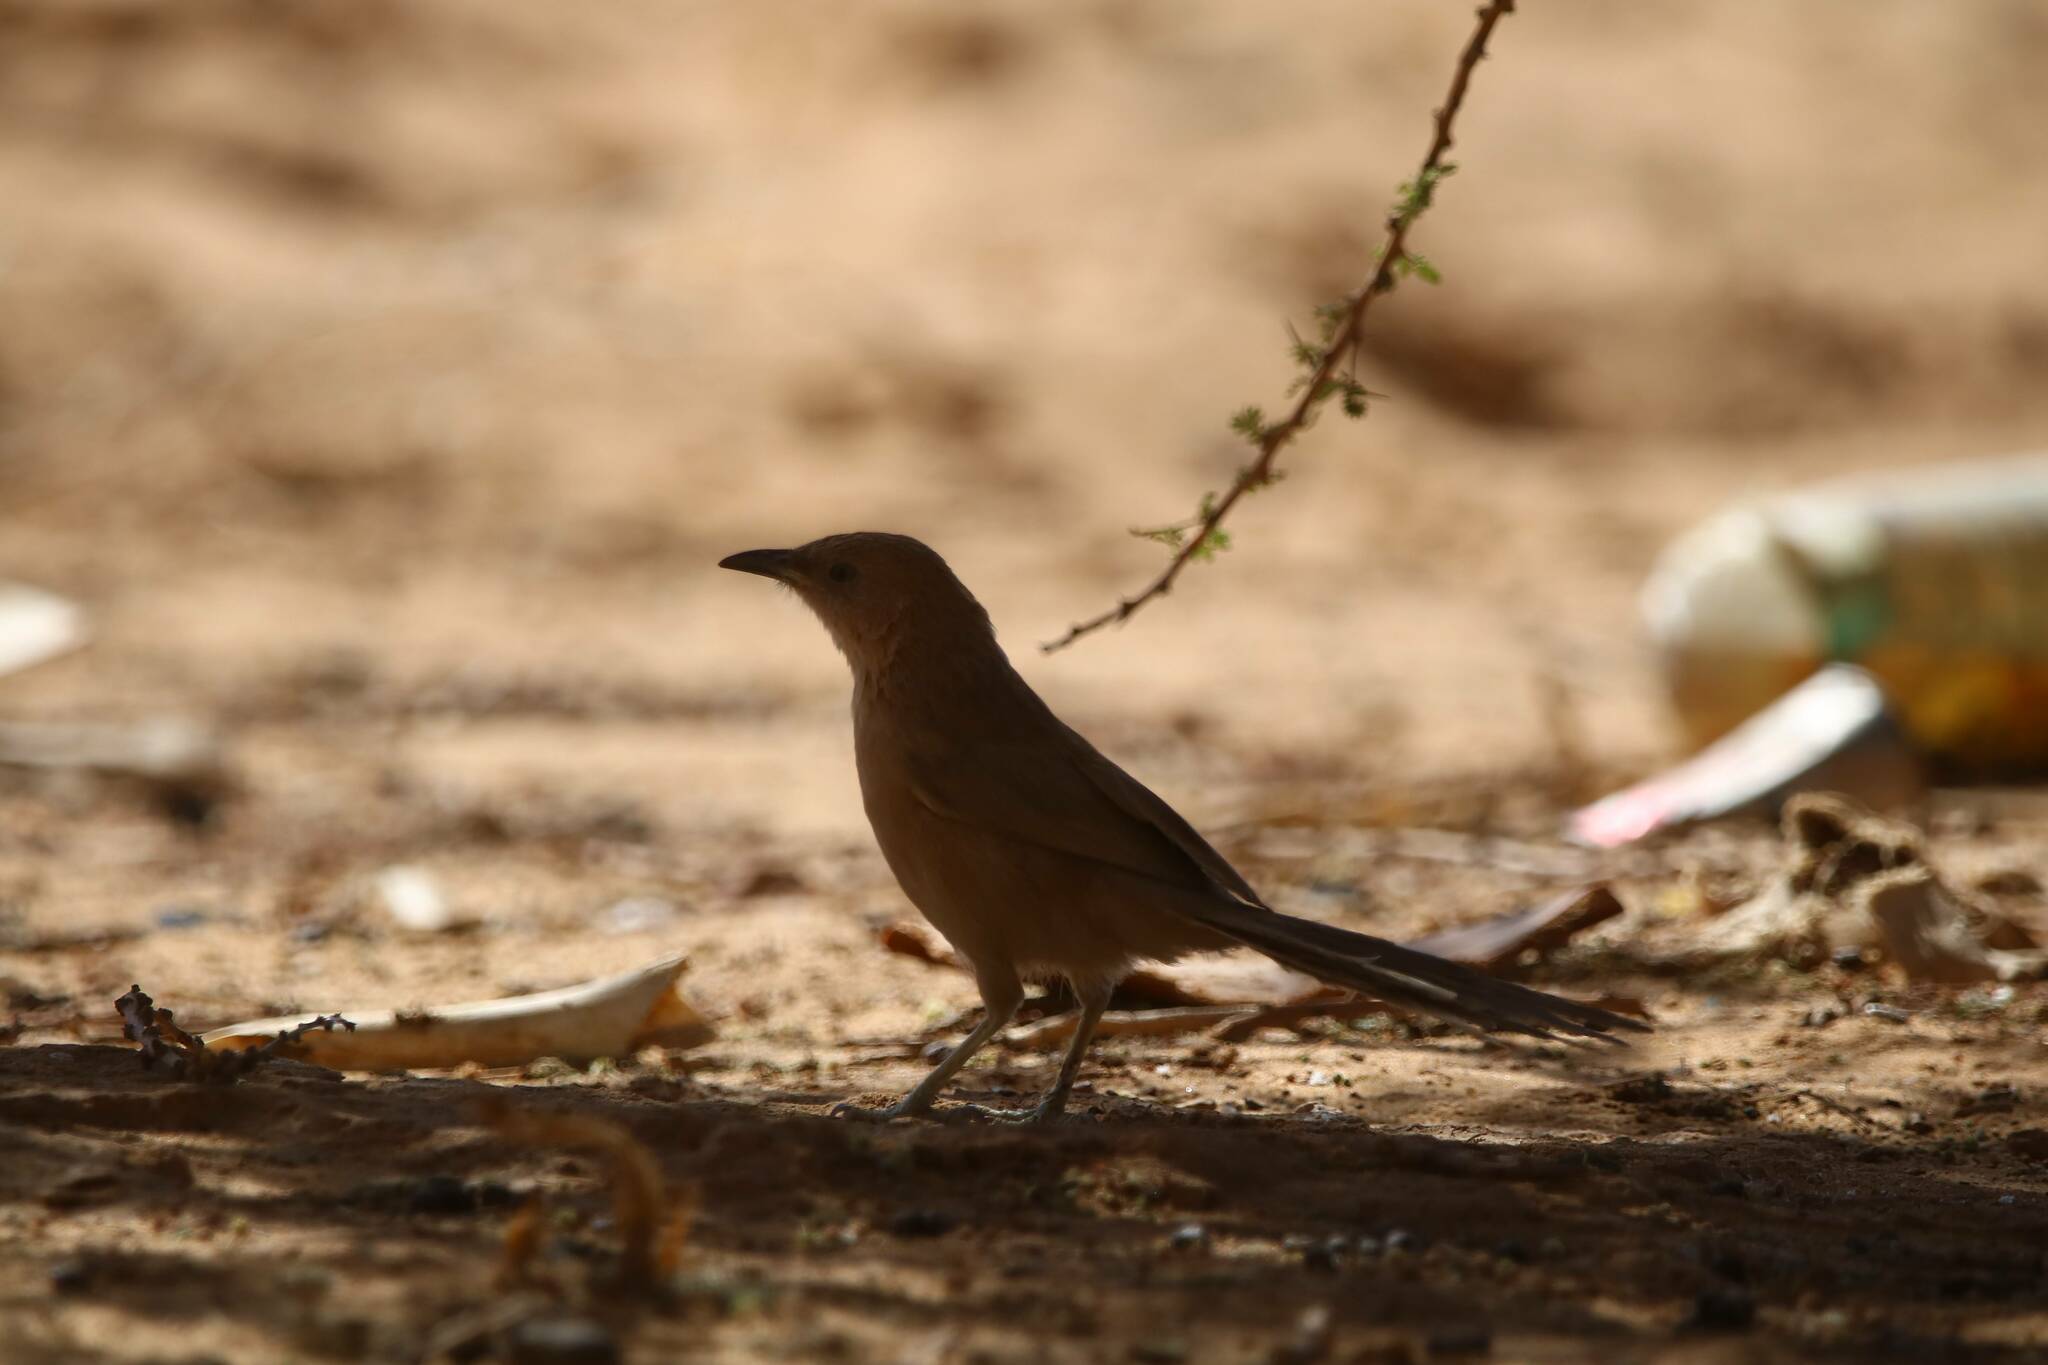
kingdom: Animalia
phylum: Chordata
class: Aves
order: Passeriformes
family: Leiothrichidae
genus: Turdoides
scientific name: Turdoides fulva
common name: Fulvous babbler
